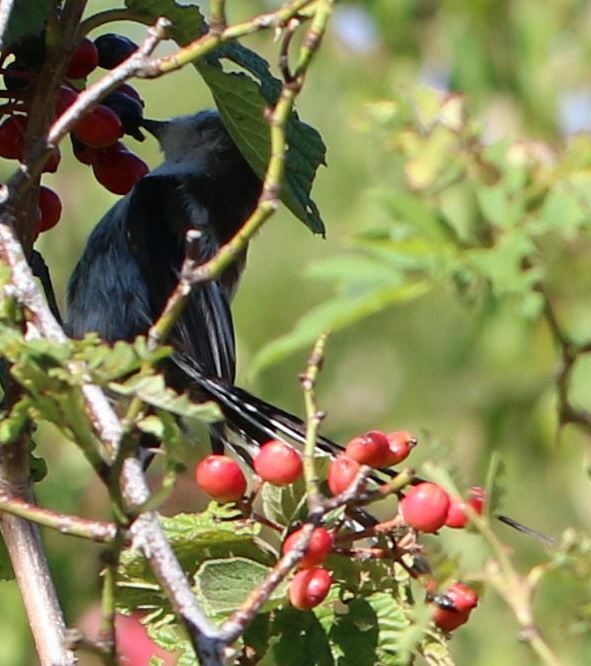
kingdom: Animalia
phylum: Chordata
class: Aves
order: Passeriformes
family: Aegithalidae
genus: Aegithalos
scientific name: Aegithalos caudatus
